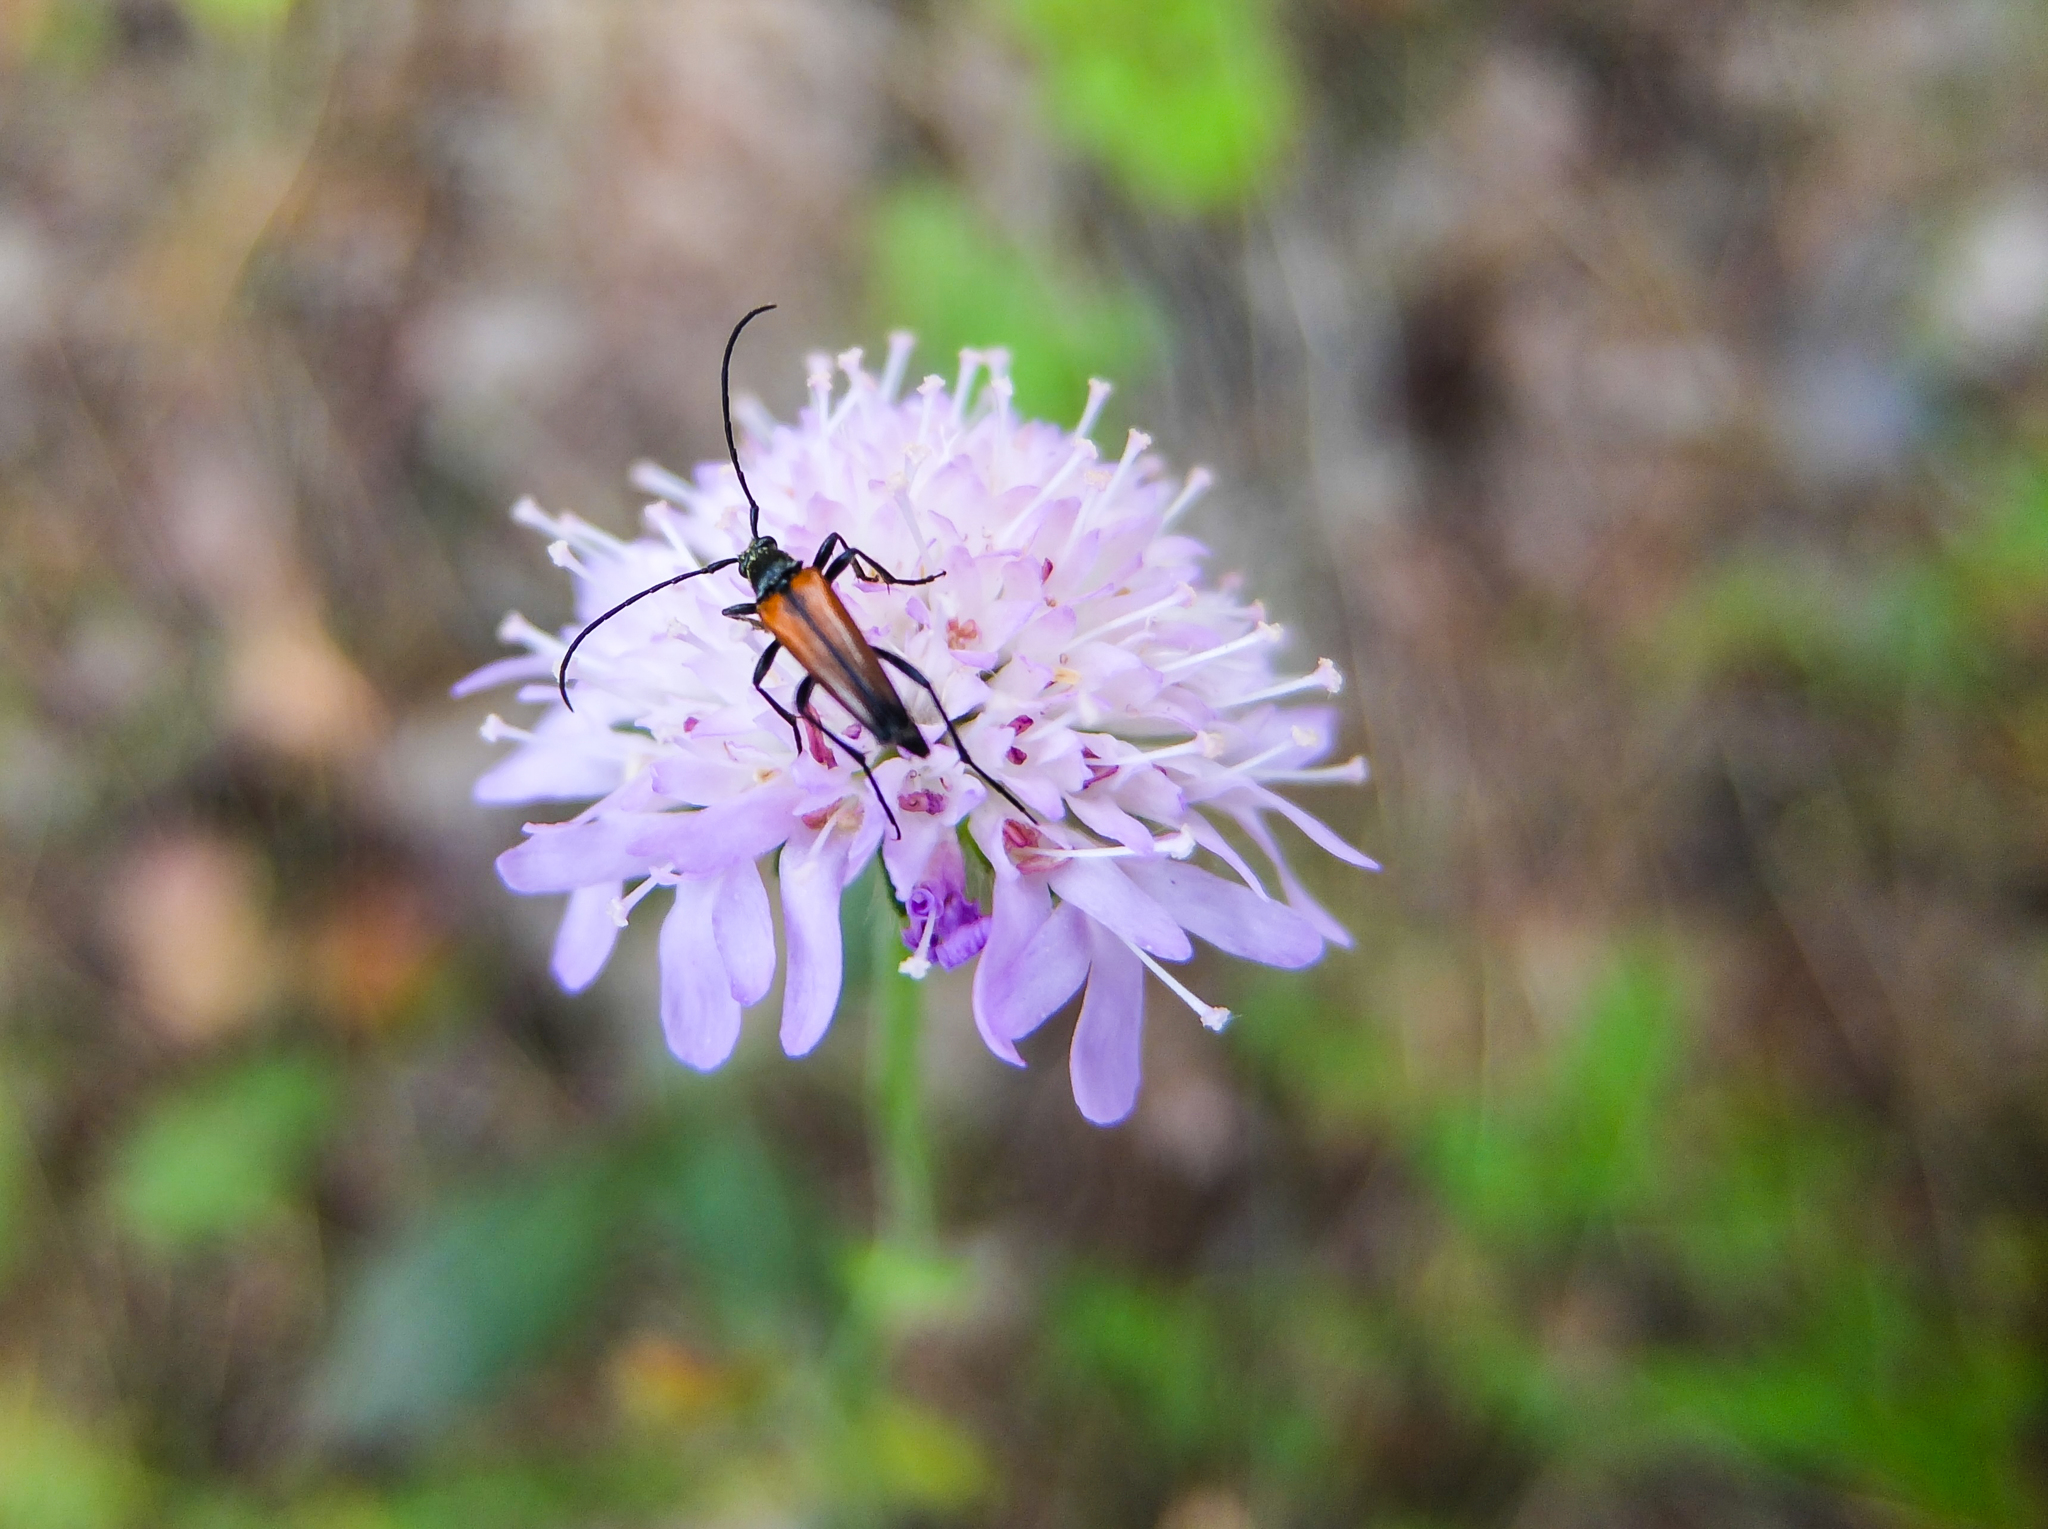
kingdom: Animalia
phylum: Arthropoda
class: Insecta
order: Coleoptera
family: Cerambycidae
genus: Stenurella
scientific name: Stenurella melanura
